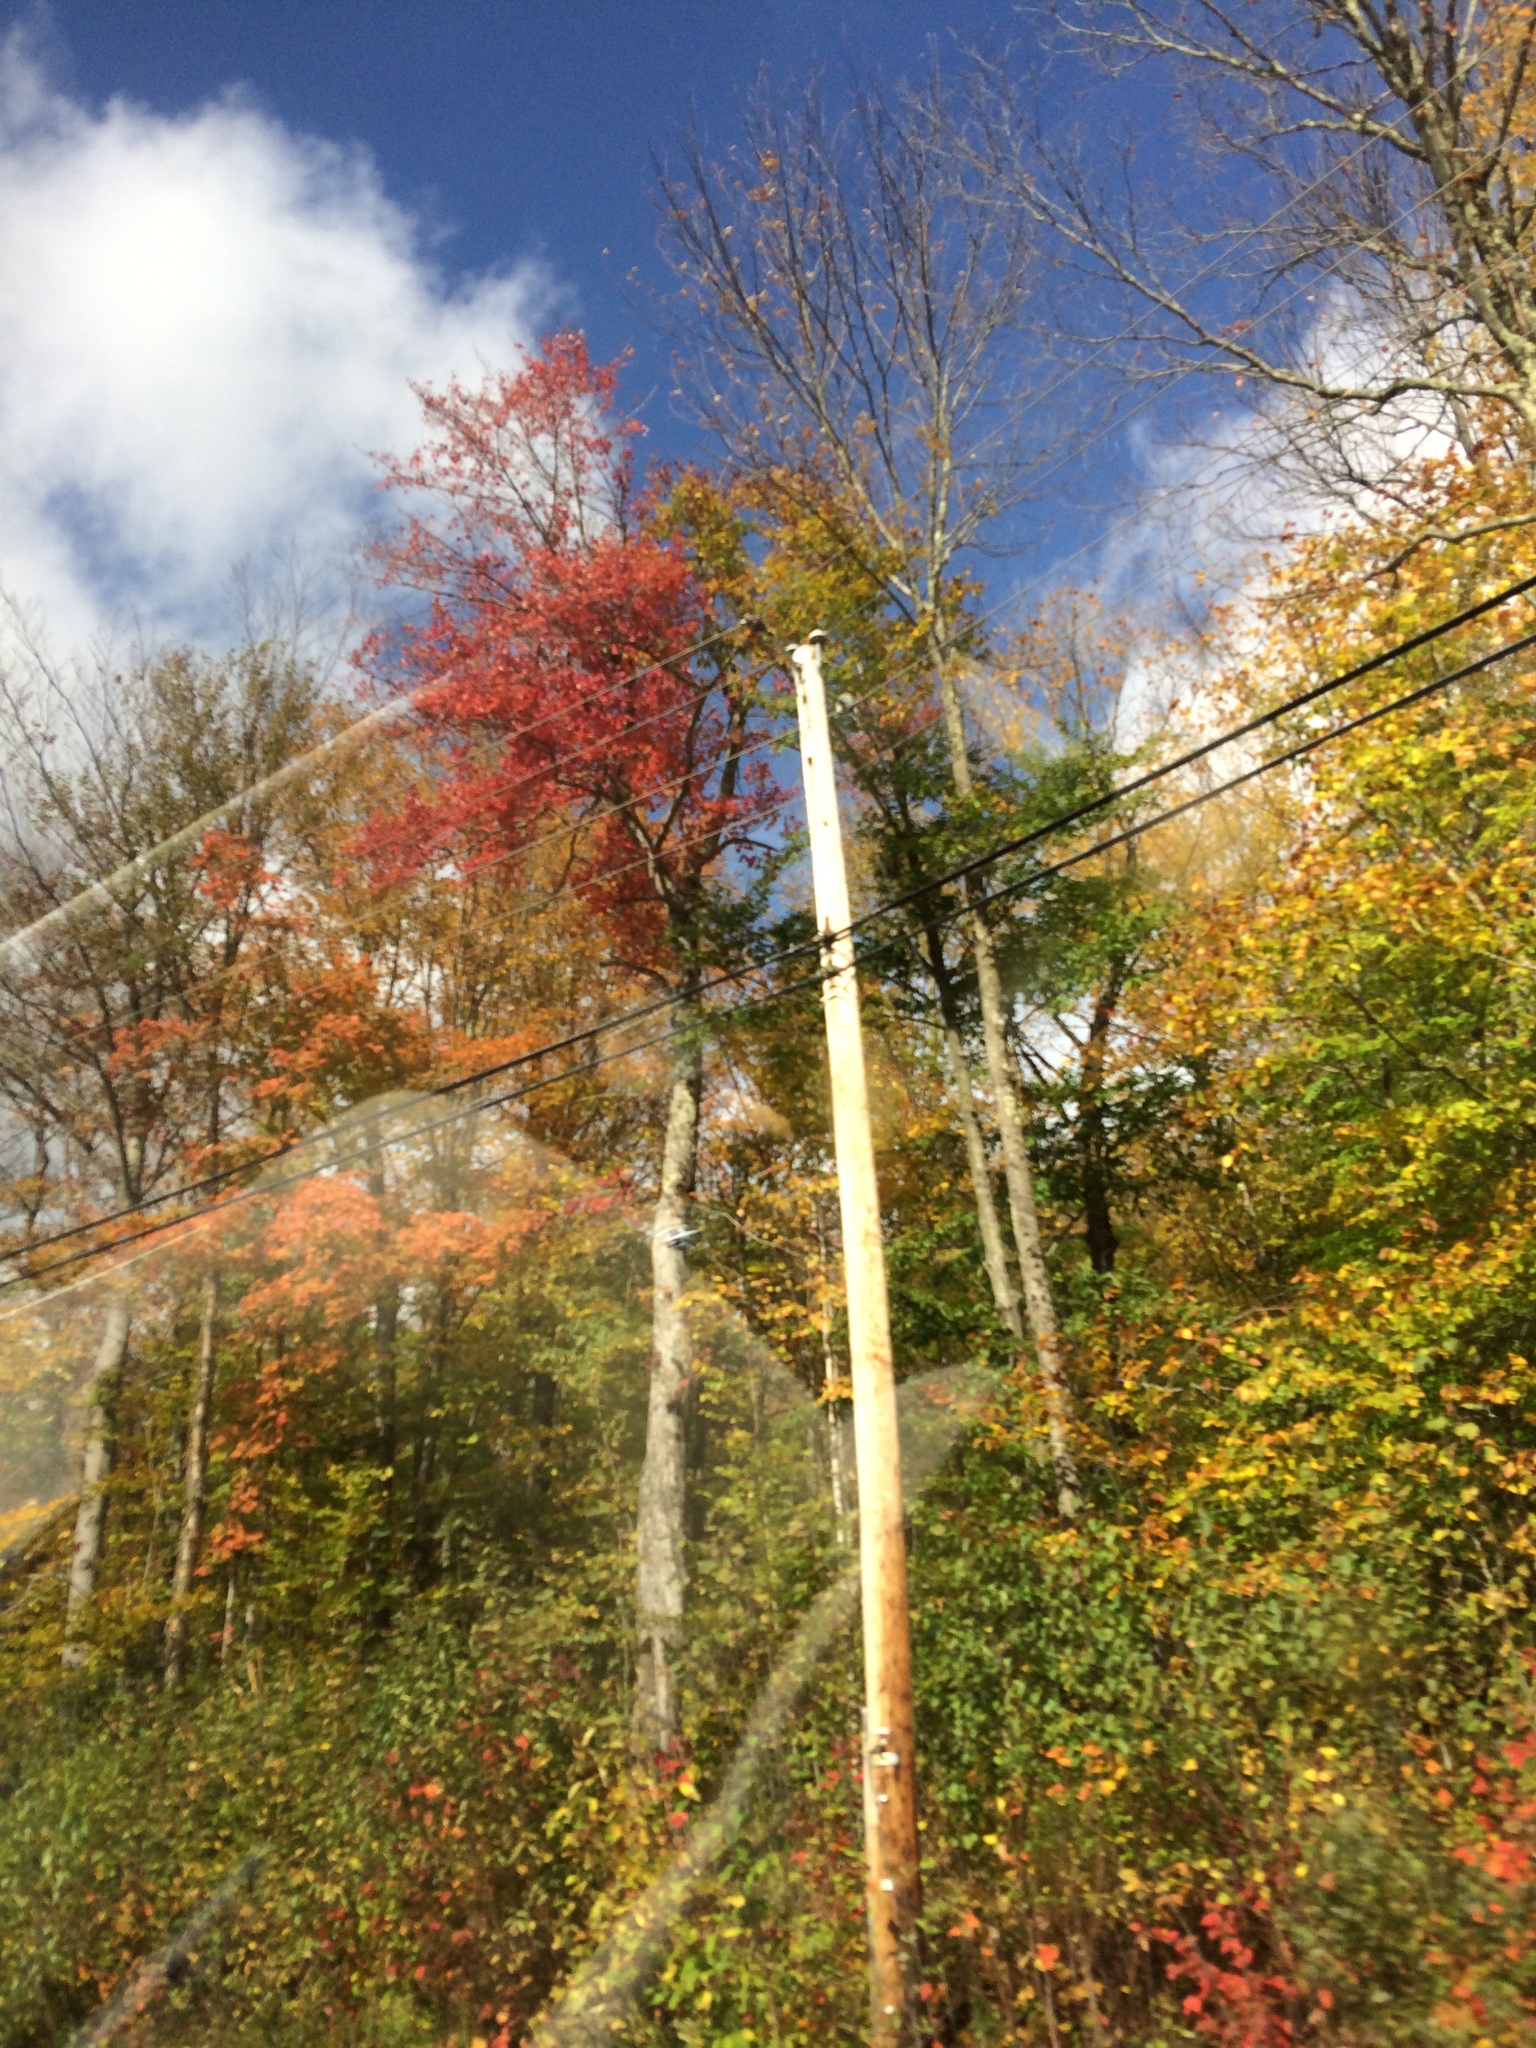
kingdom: Plantae
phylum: Tracheophyta
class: Magnoliopsida
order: Sapindales
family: Sapindaceae
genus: Acer
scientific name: Acer rubrum
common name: Red maple
